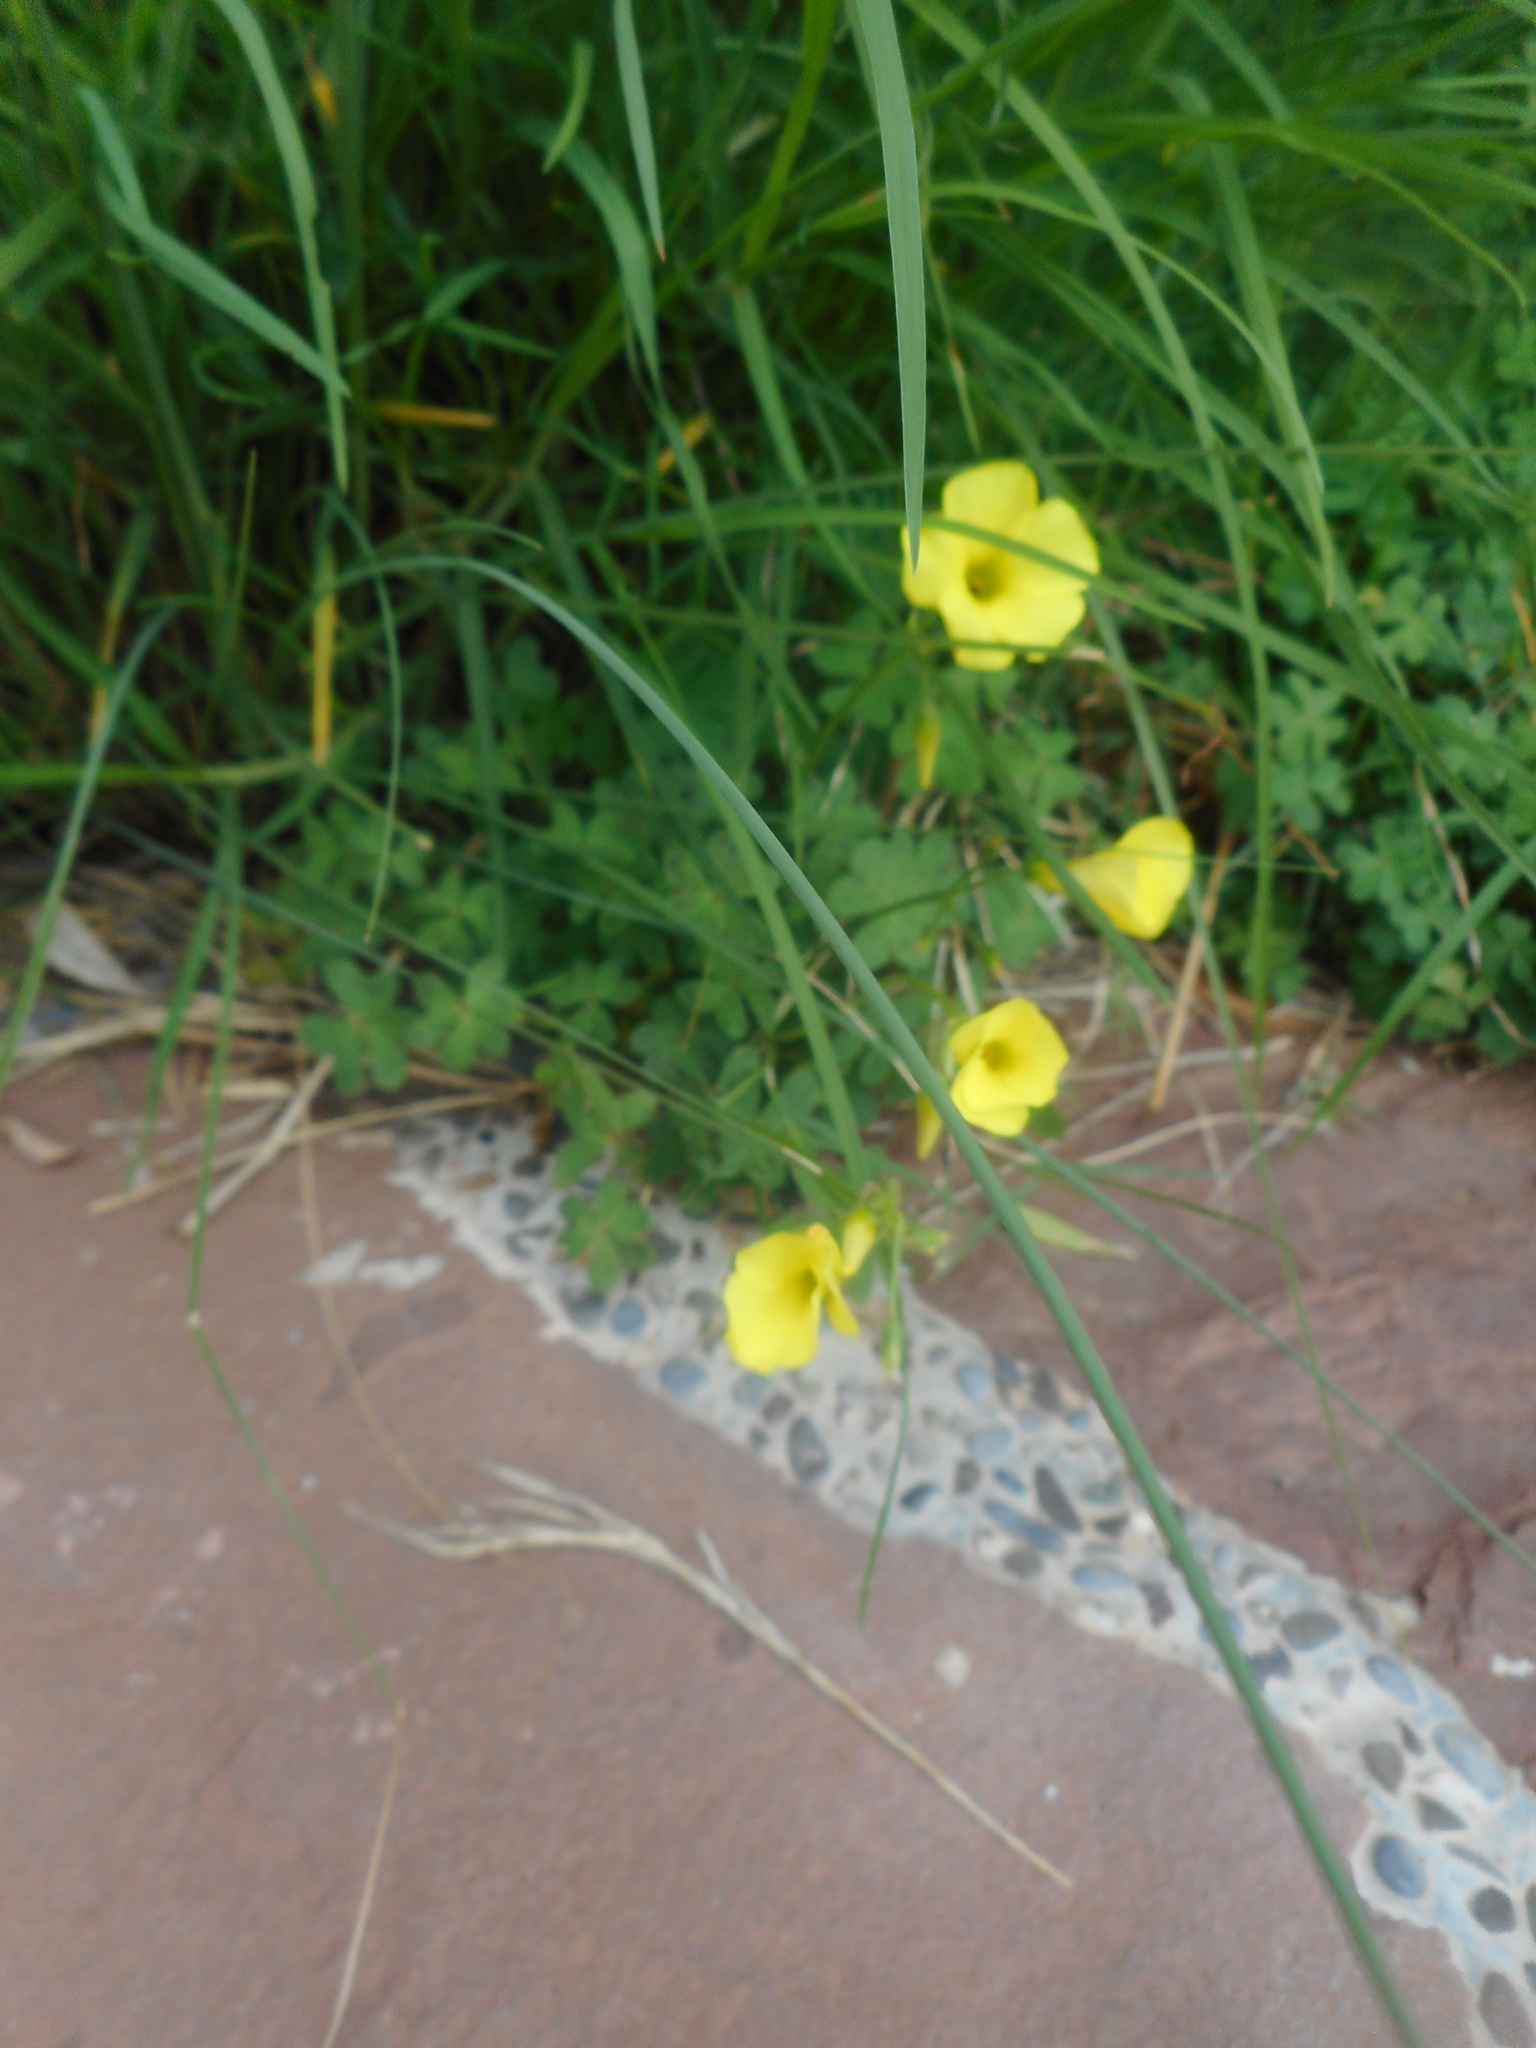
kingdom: Plantae
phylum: Tracheophyta
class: Magnoliopsida
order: Oxalidales
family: Oxalidaceae
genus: Oxalis
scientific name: Oxalis pes-caprae
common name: Bermuda-buttercup
